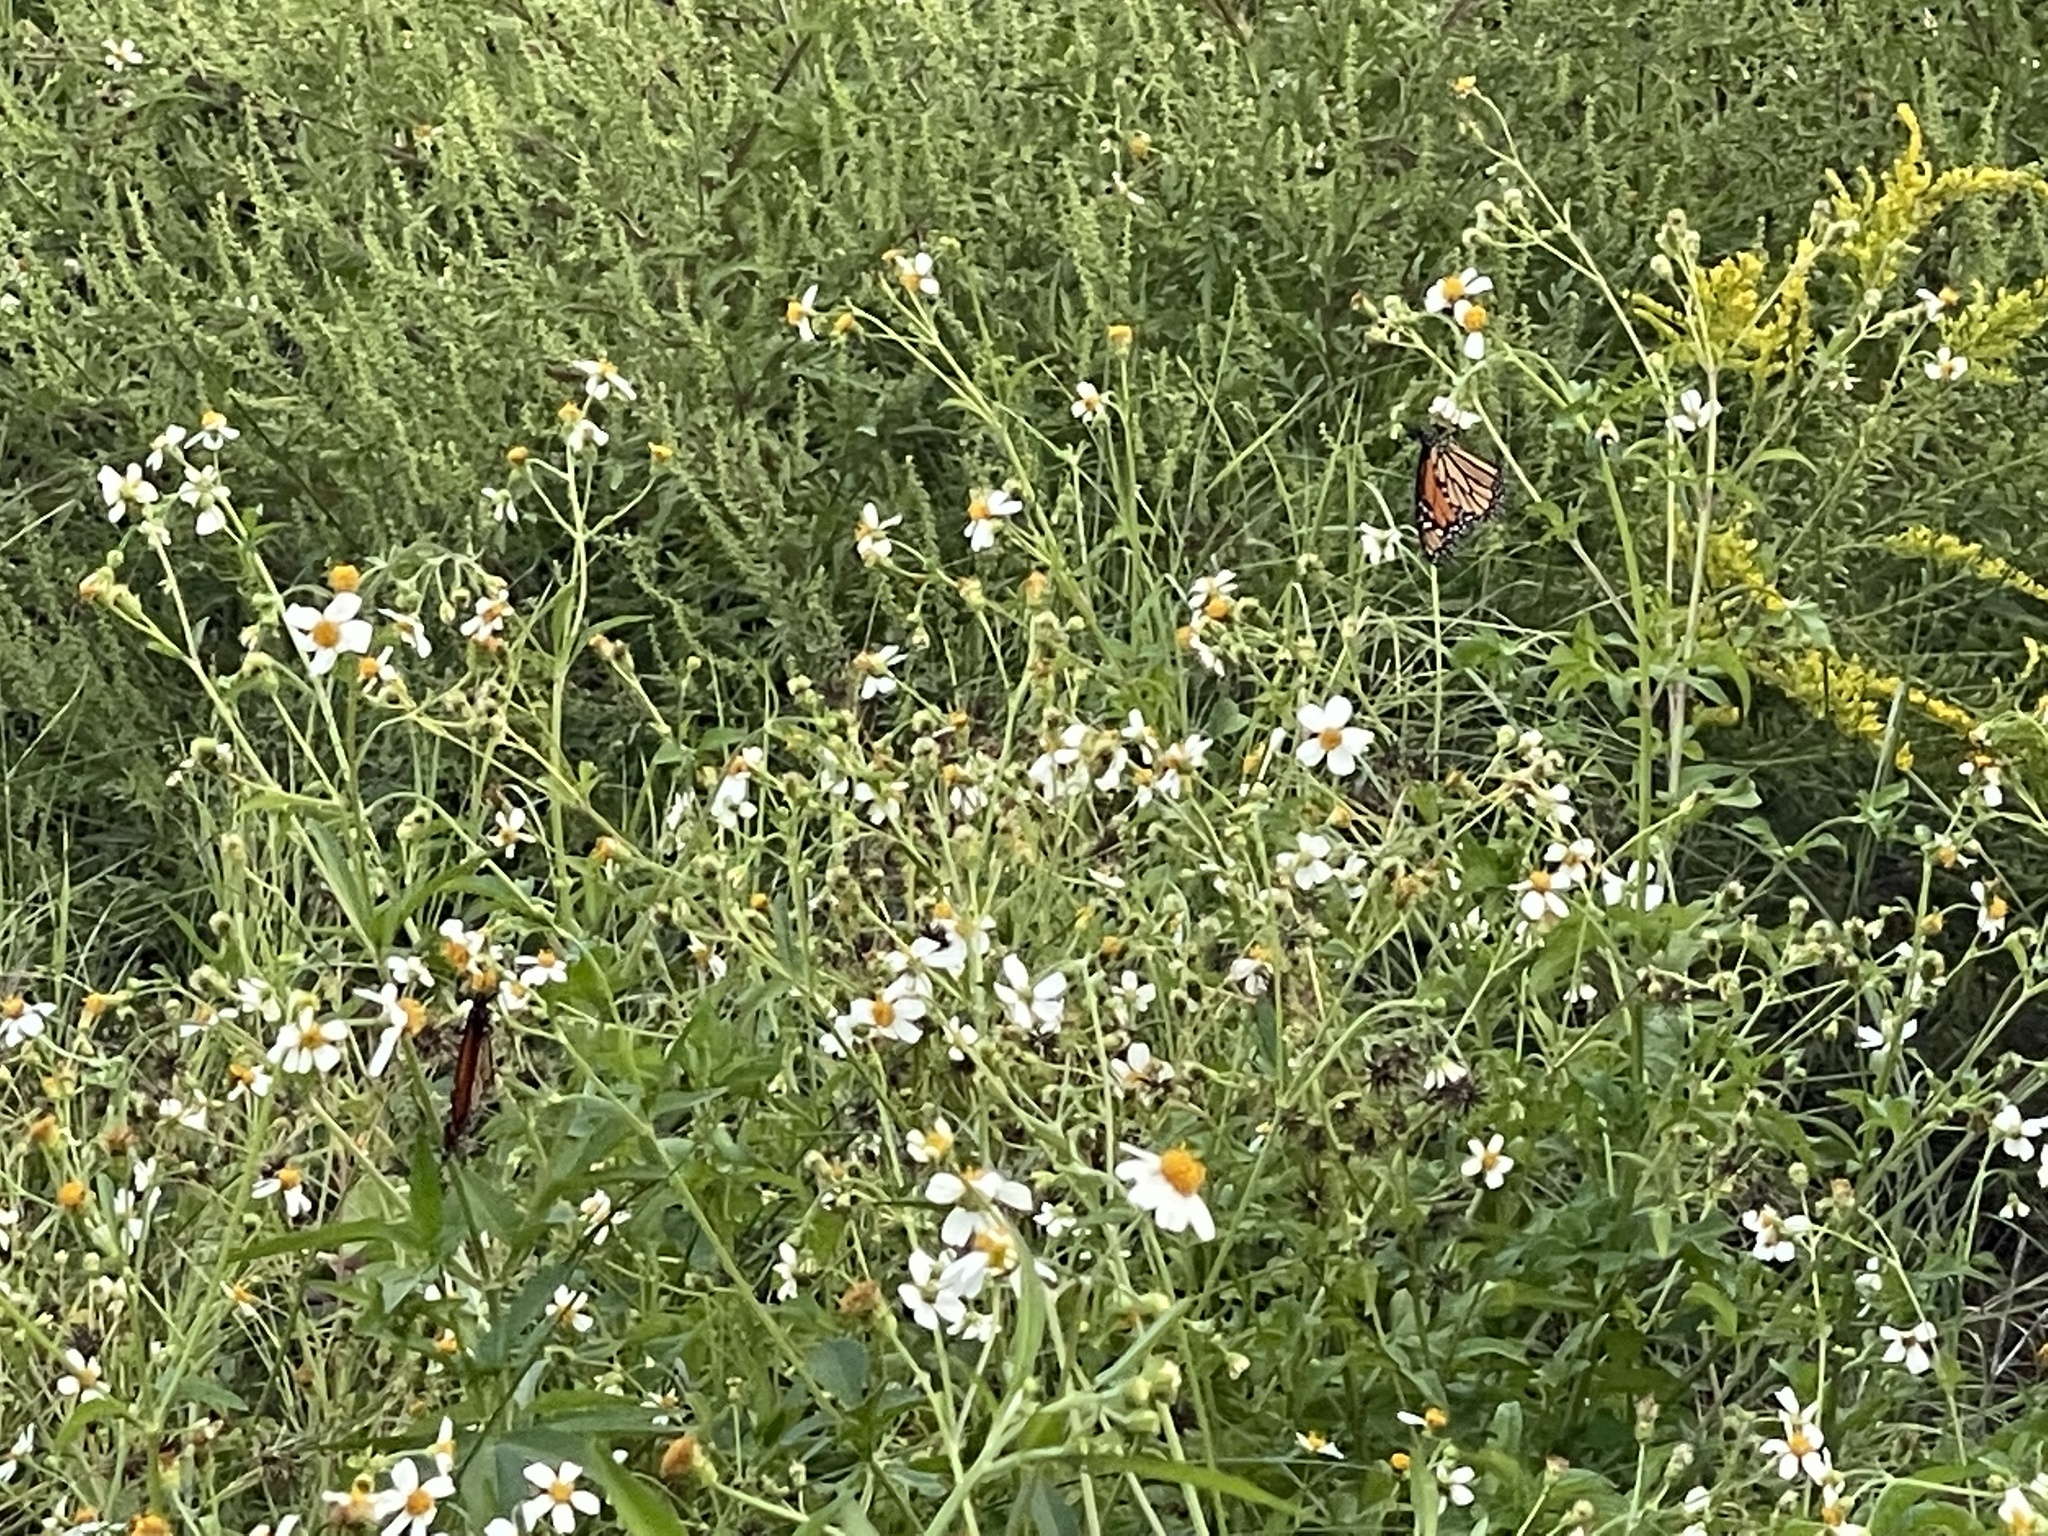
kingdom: Animalia
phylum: Arthropoda
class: Insecta
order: Lepidoptera
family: Nymphalidae
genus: Danaus
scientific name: Danaus plexippus
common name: Monarch
